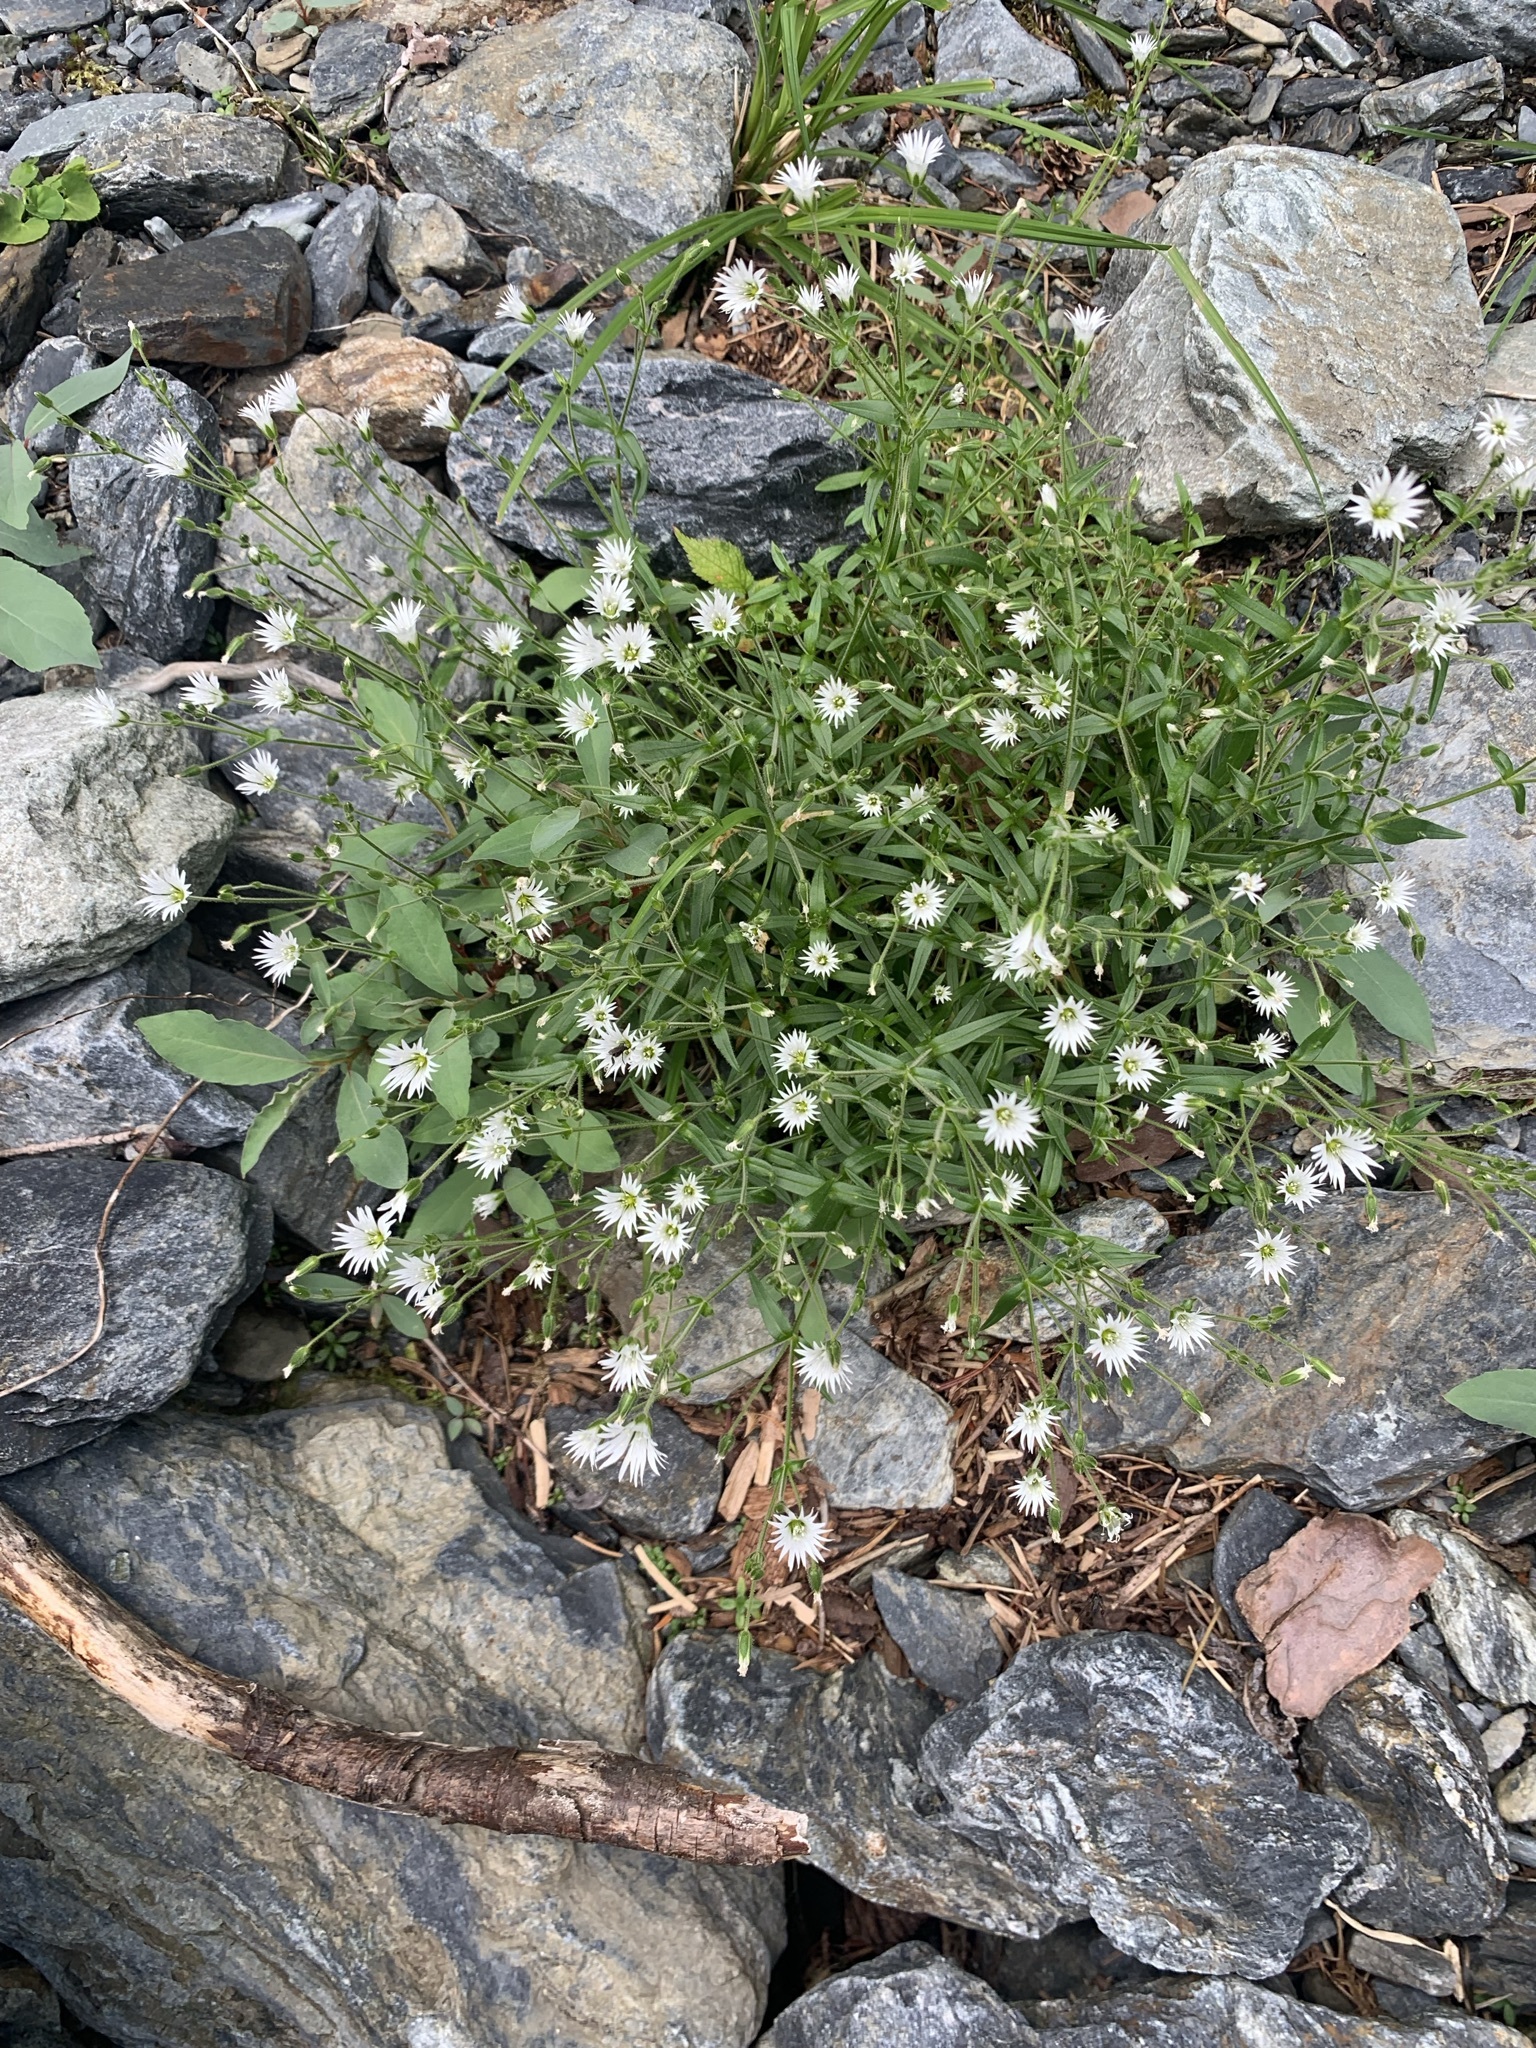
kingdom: Plantae
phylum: Tracheophyta
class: Magnoliopsida
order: Caryophyllales
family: Caryophyllaceae
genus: Stellaria
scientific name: Stellaria nipponica
